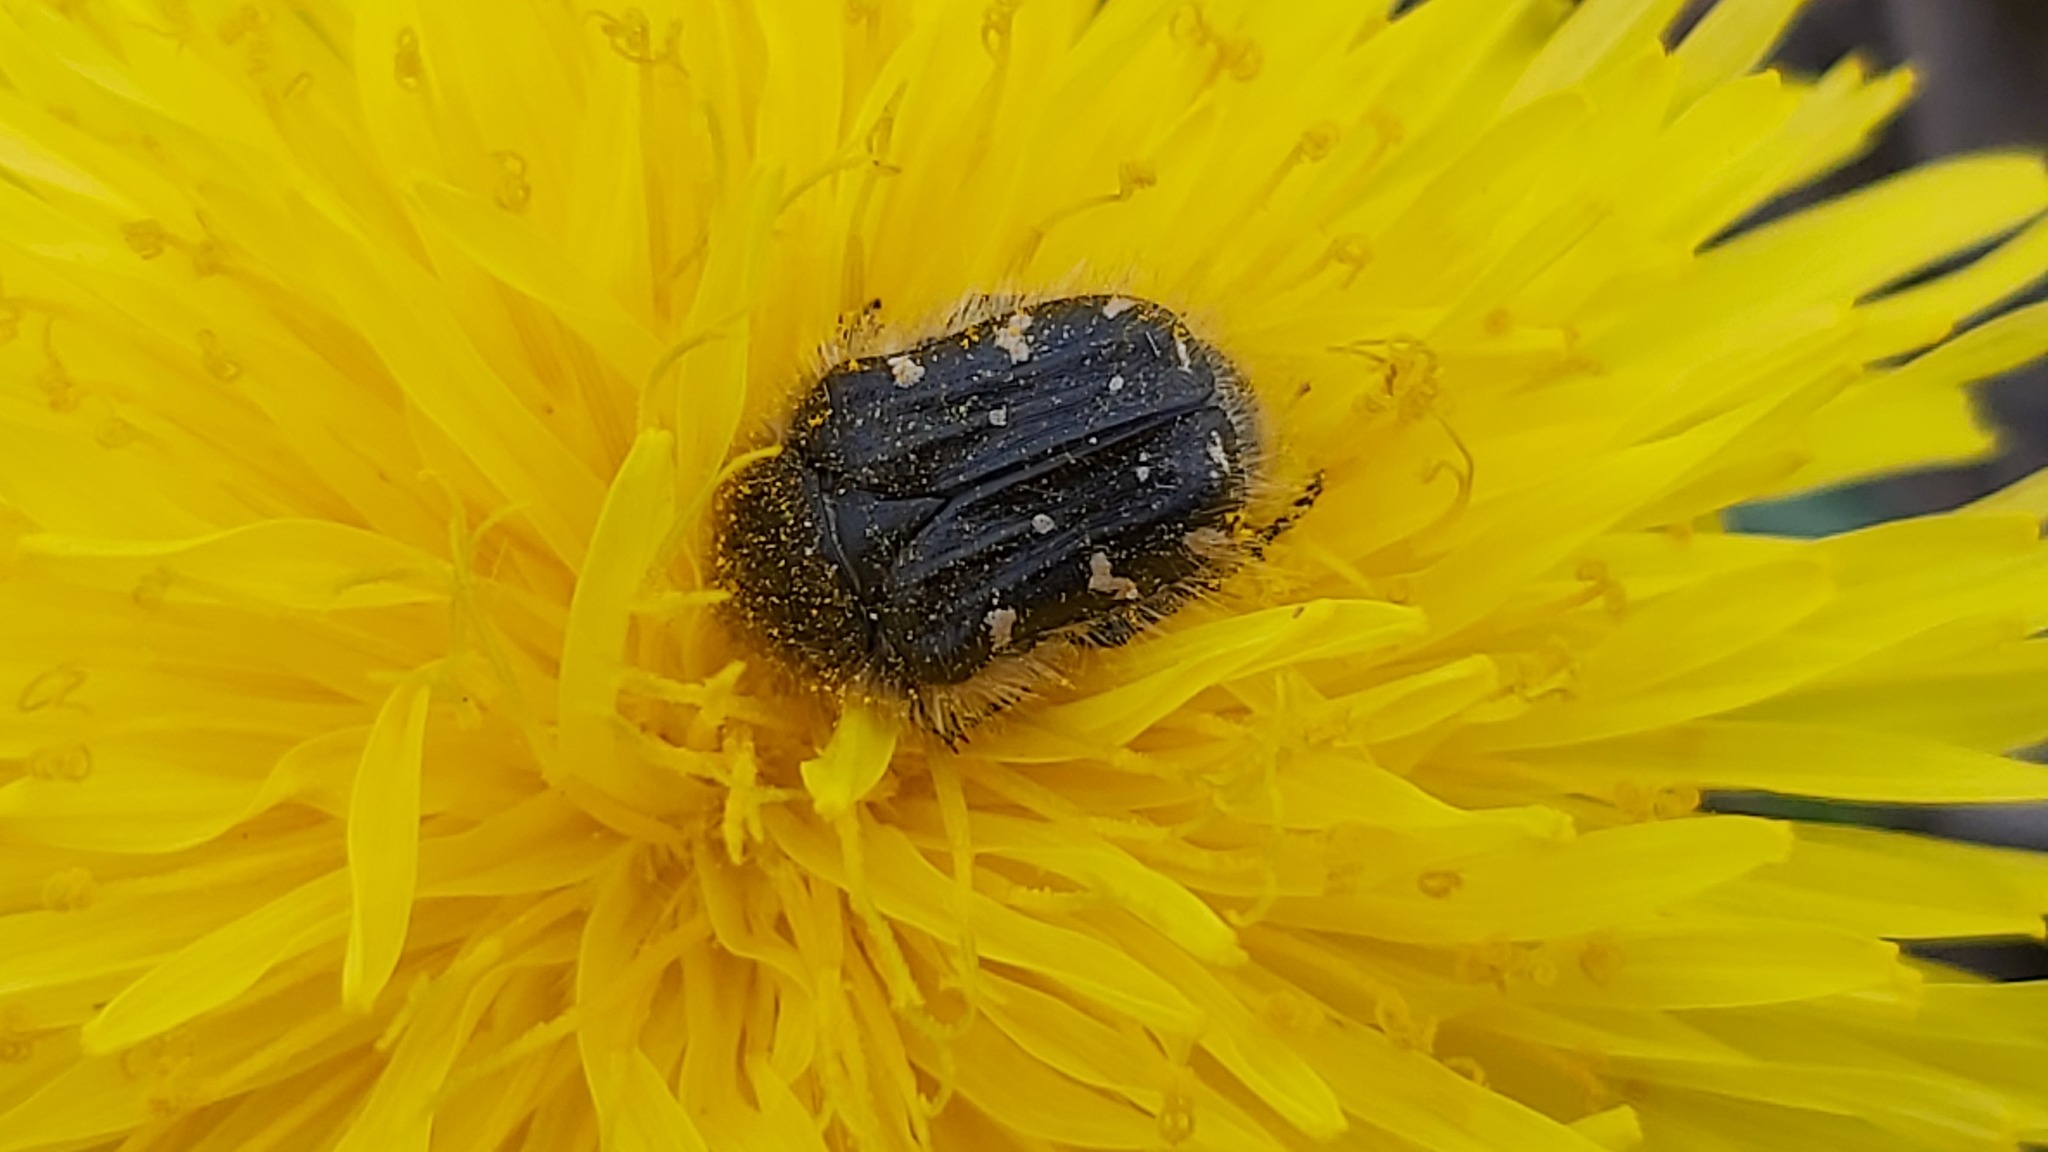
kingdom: Animalia
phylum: Arthropoda
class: Insecta
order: Coleoptera
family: Scarabaeidae
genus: Tropinota
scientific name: Tropinota hirta
